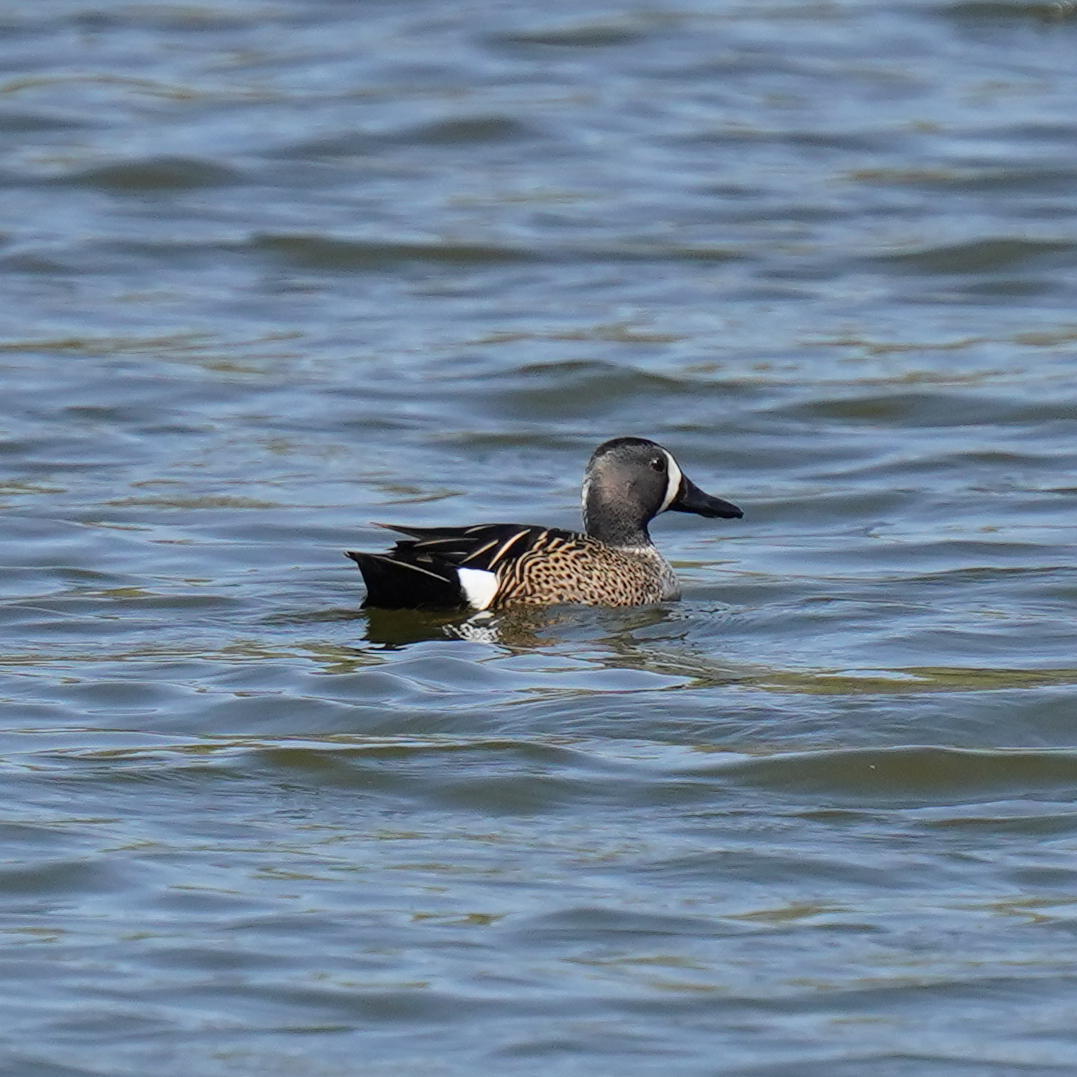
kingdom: Animalia
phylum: Chordata
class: Aves
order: Anseriformes
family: Anatidae
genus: Spatula
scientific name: Spatula discors
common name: Blue-winged teal
